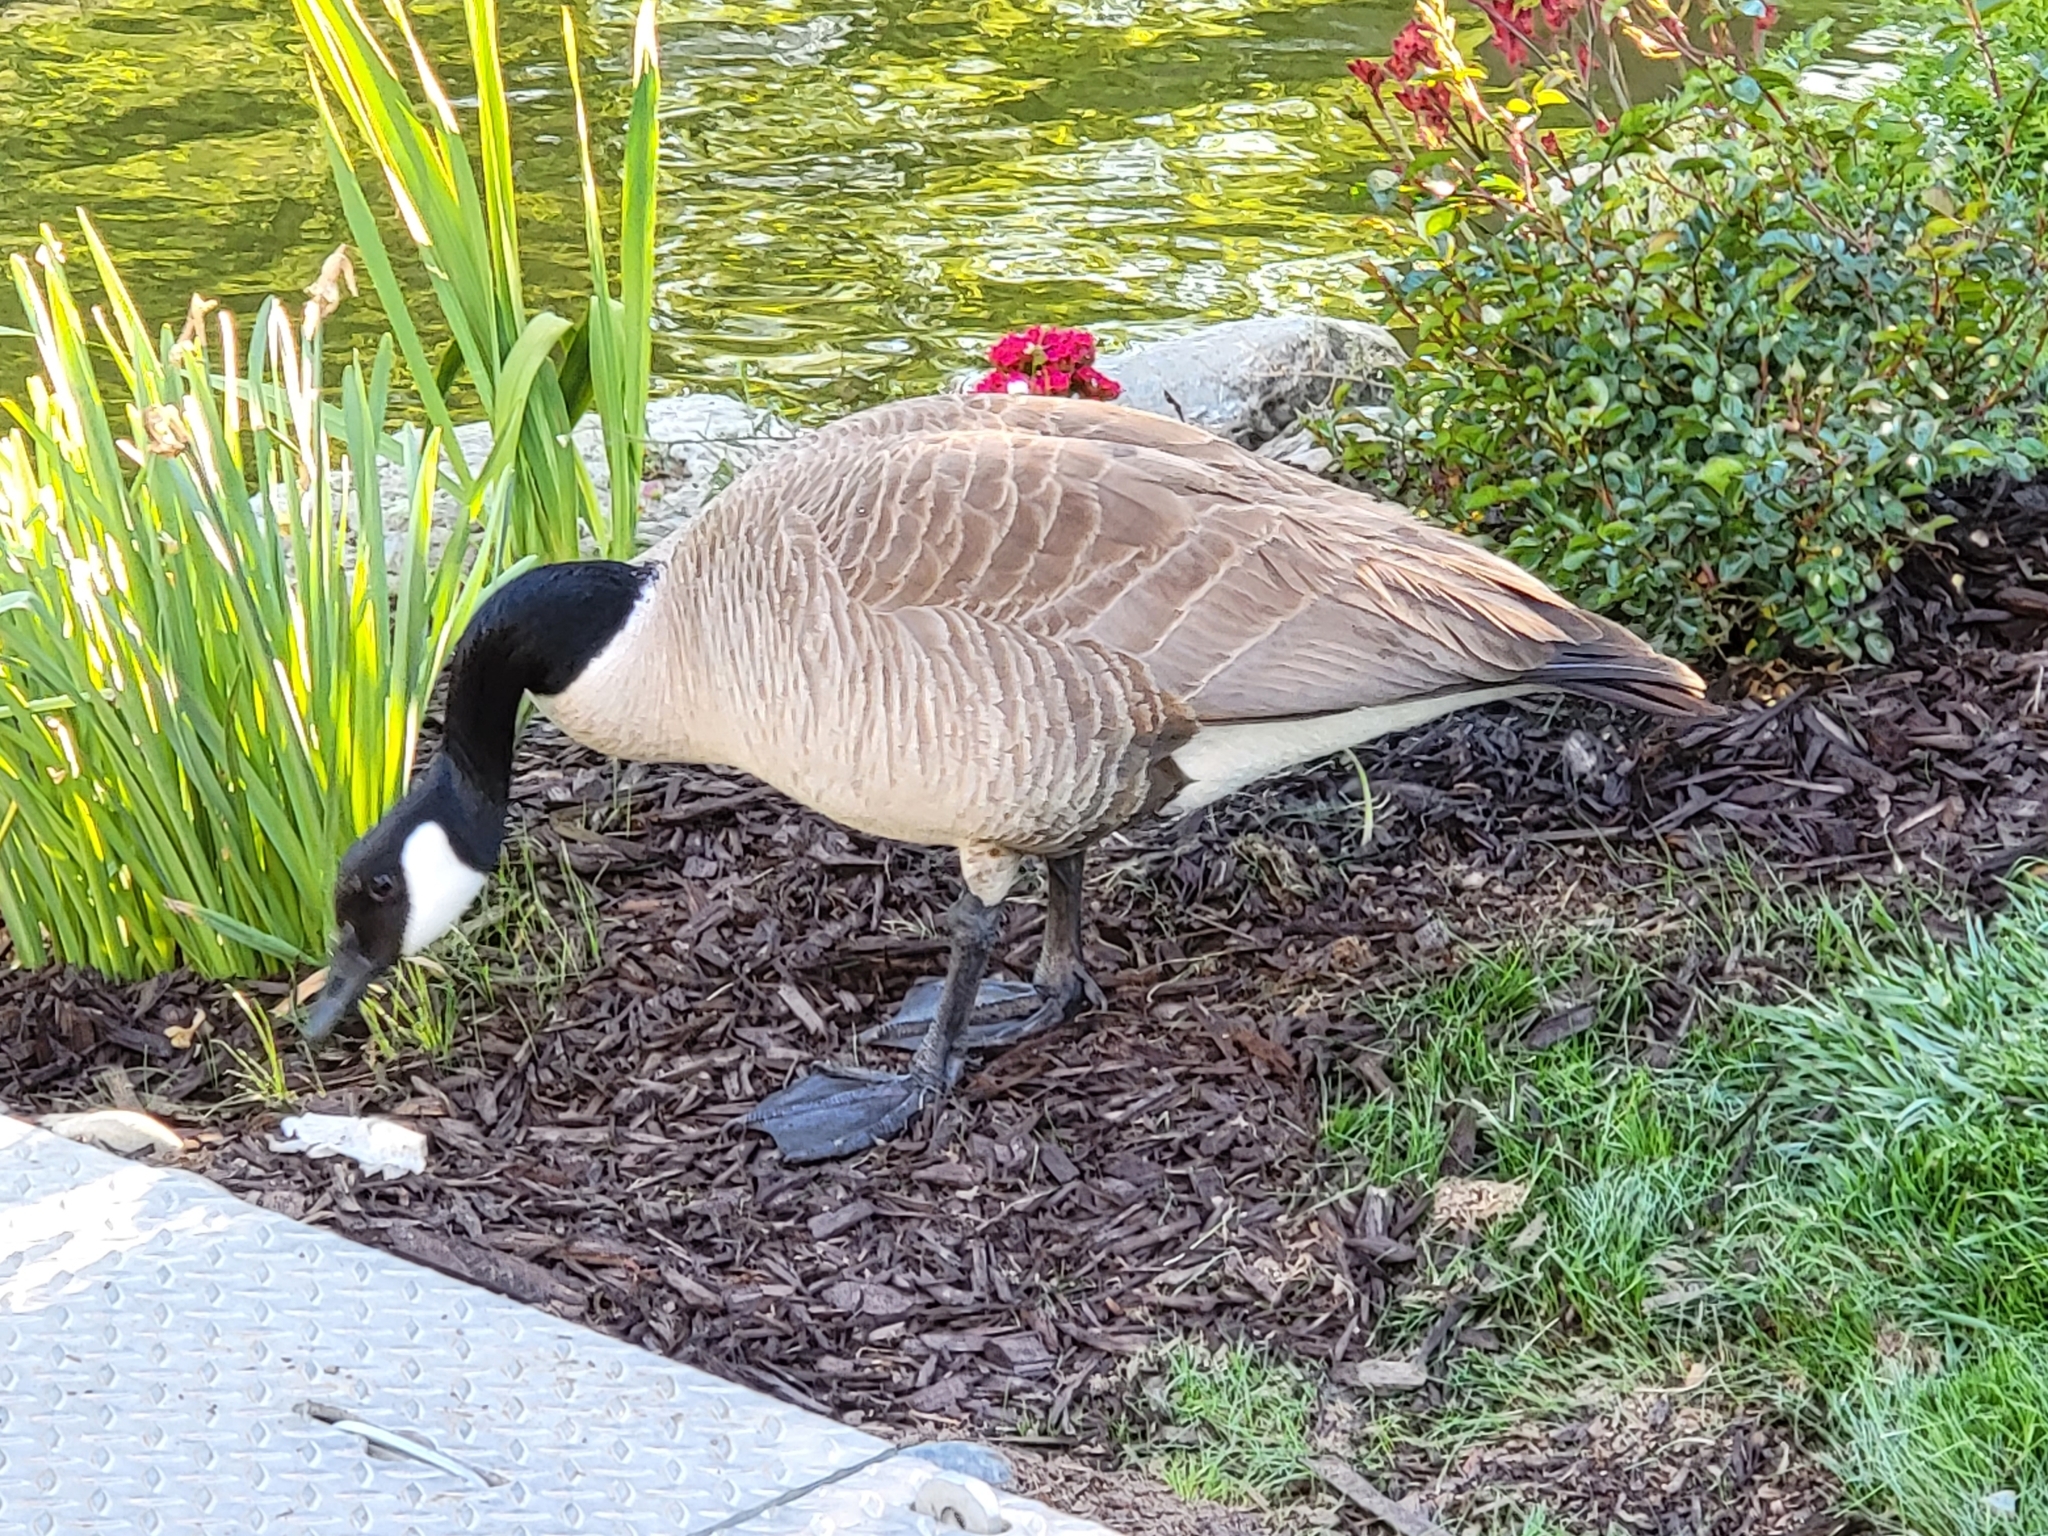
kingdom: Animalia
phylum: Chordata
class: Aves
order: Anseriformes
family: Anatidae
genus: Branta
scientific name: Branta canadensis
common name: Canada goose
